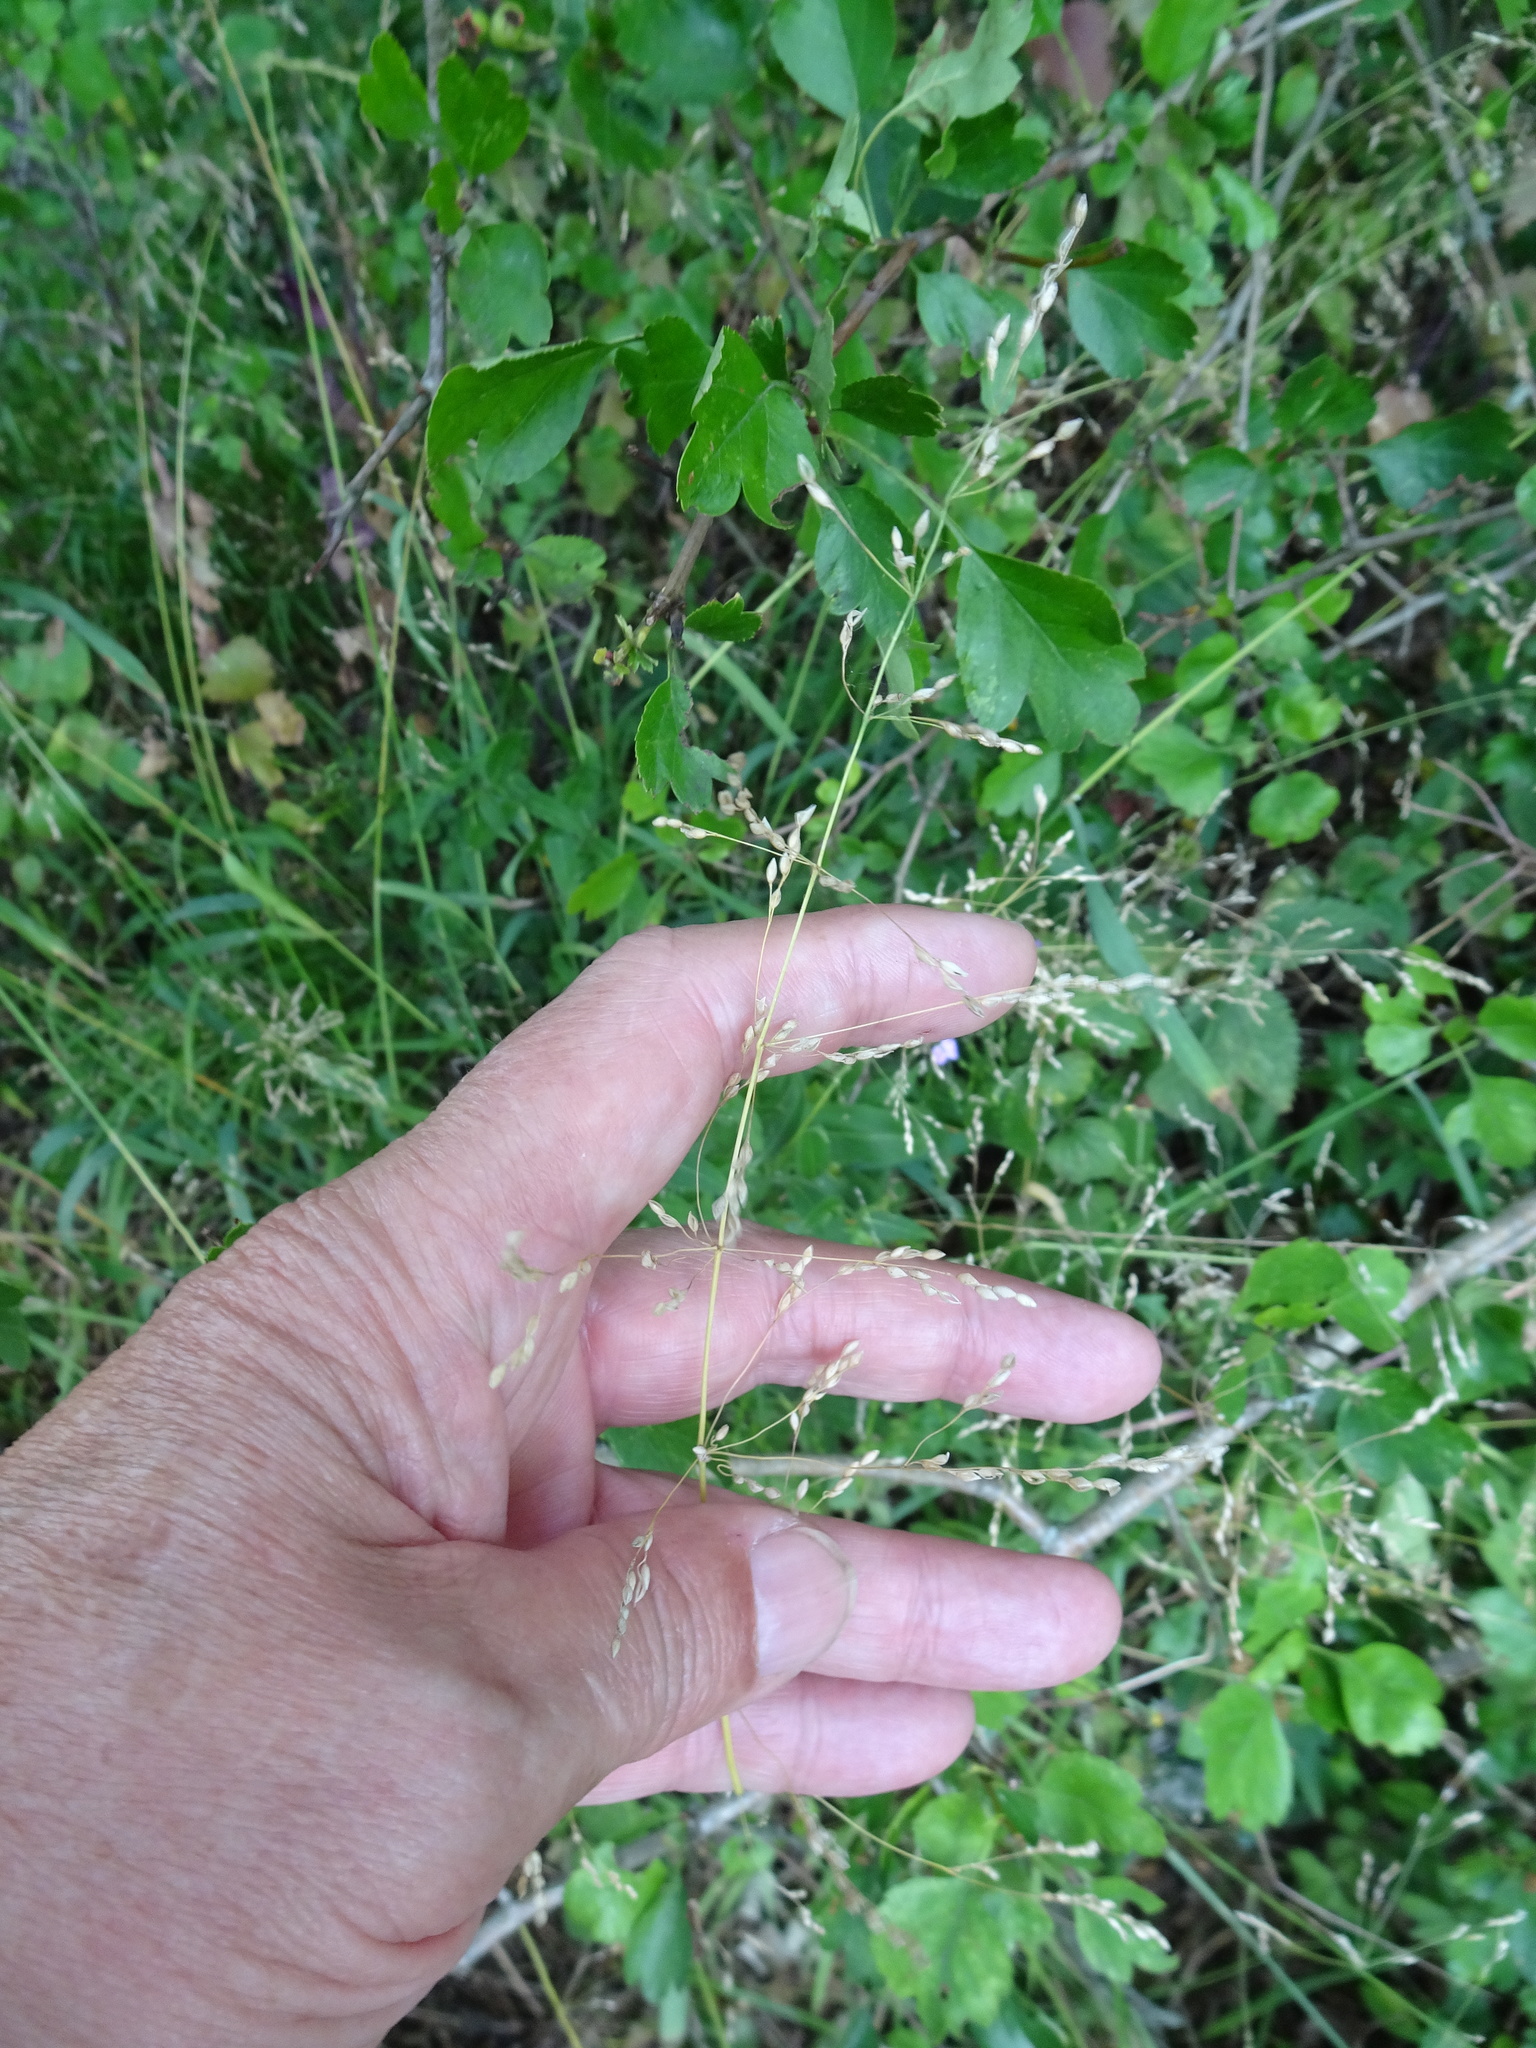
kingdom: Plantae
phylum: Tracheophyta
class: Liliopsida
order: Poales
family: Poaceae
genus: Milium
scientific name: Milium effusum
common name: Wood millet
